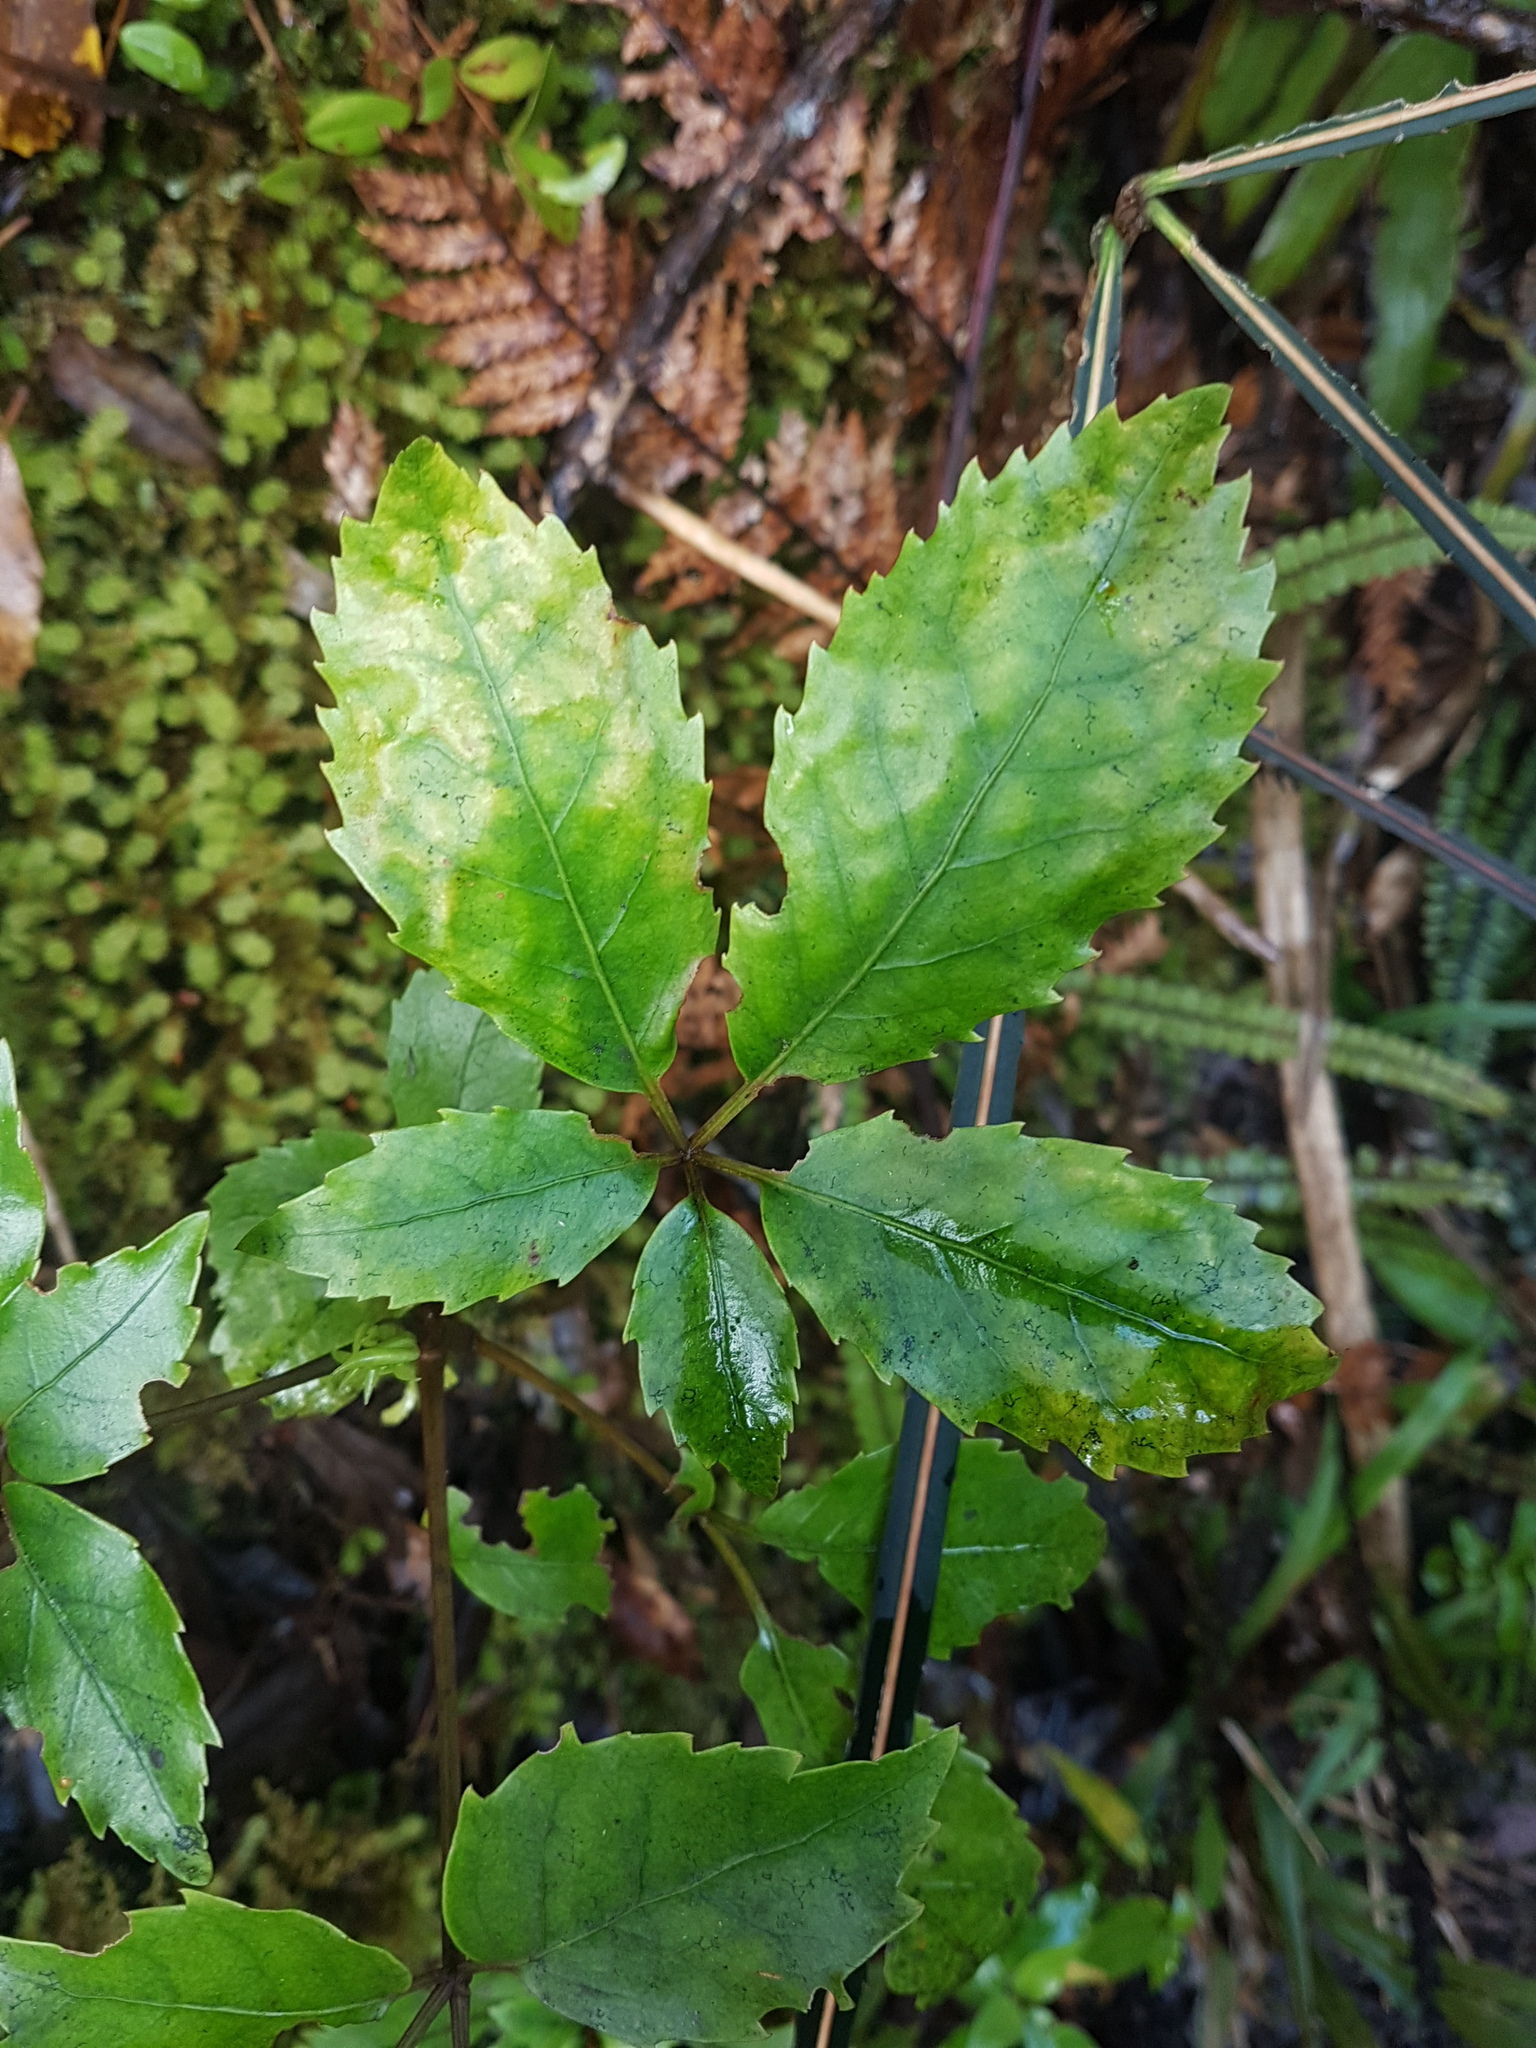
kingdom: Plantae
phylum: Tracheophyta
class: Magnoliopsida
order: Apiales
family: Araliaceae
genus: Neopanax
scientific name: Neopanax arboreus
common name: Five-fingers
